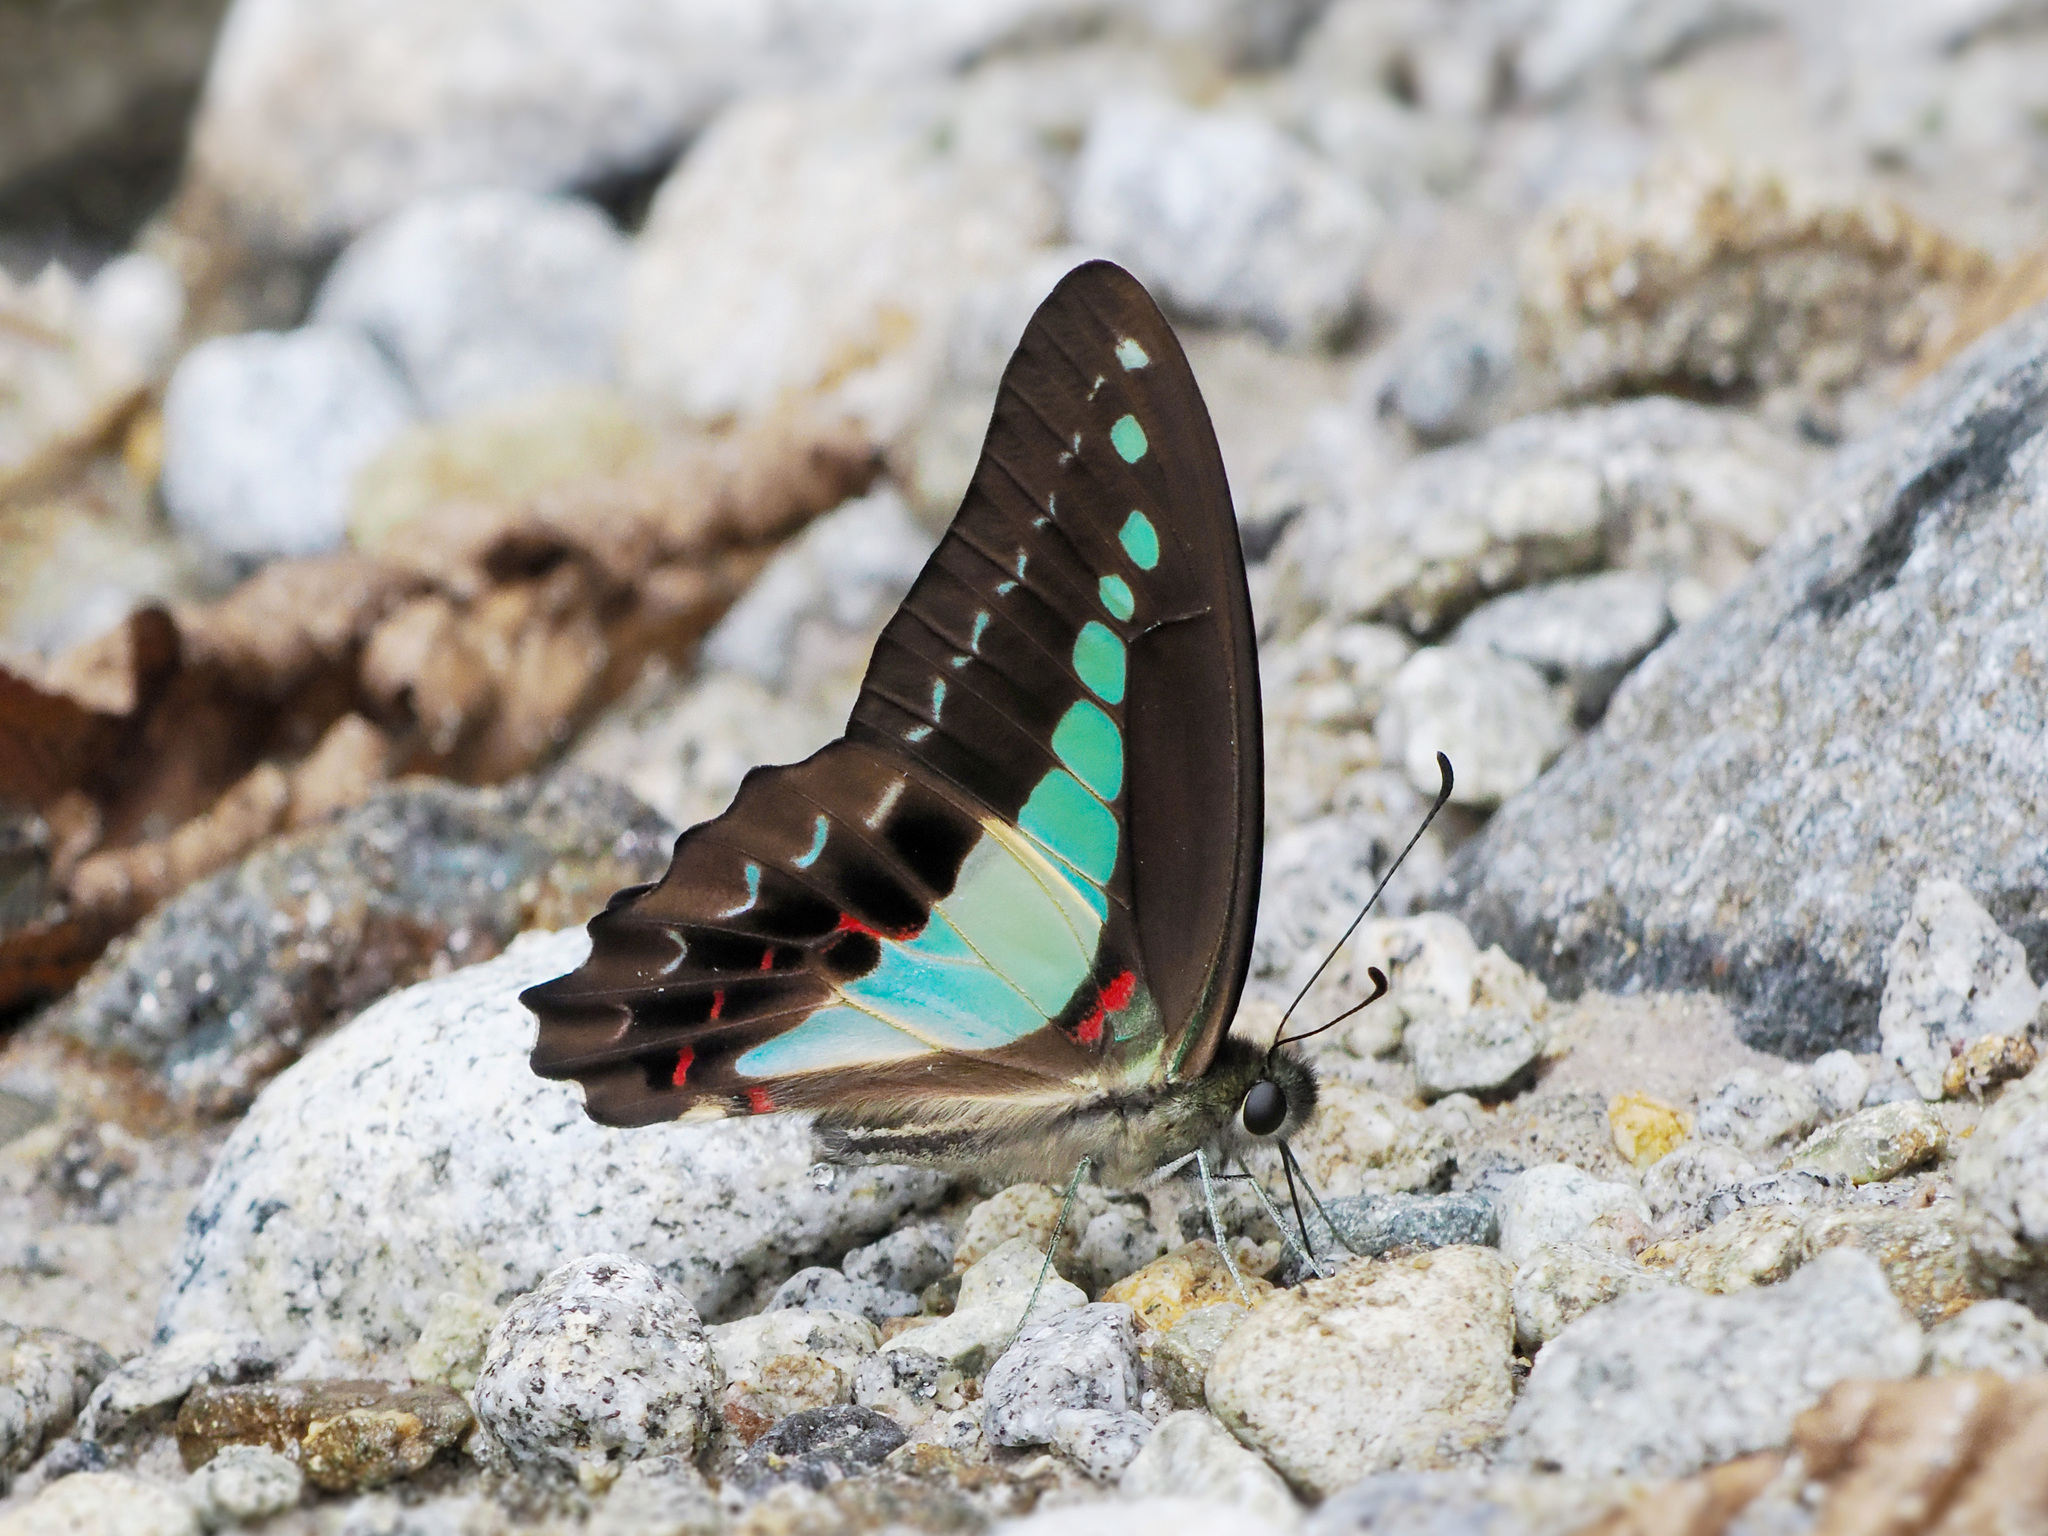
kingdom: Animalia
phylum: Arthropoda
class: Insecta
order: Lepidoptera
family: Papilionidae
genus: Graphium
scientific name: Graphium monticolus
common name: Sulawesi blue triangle
